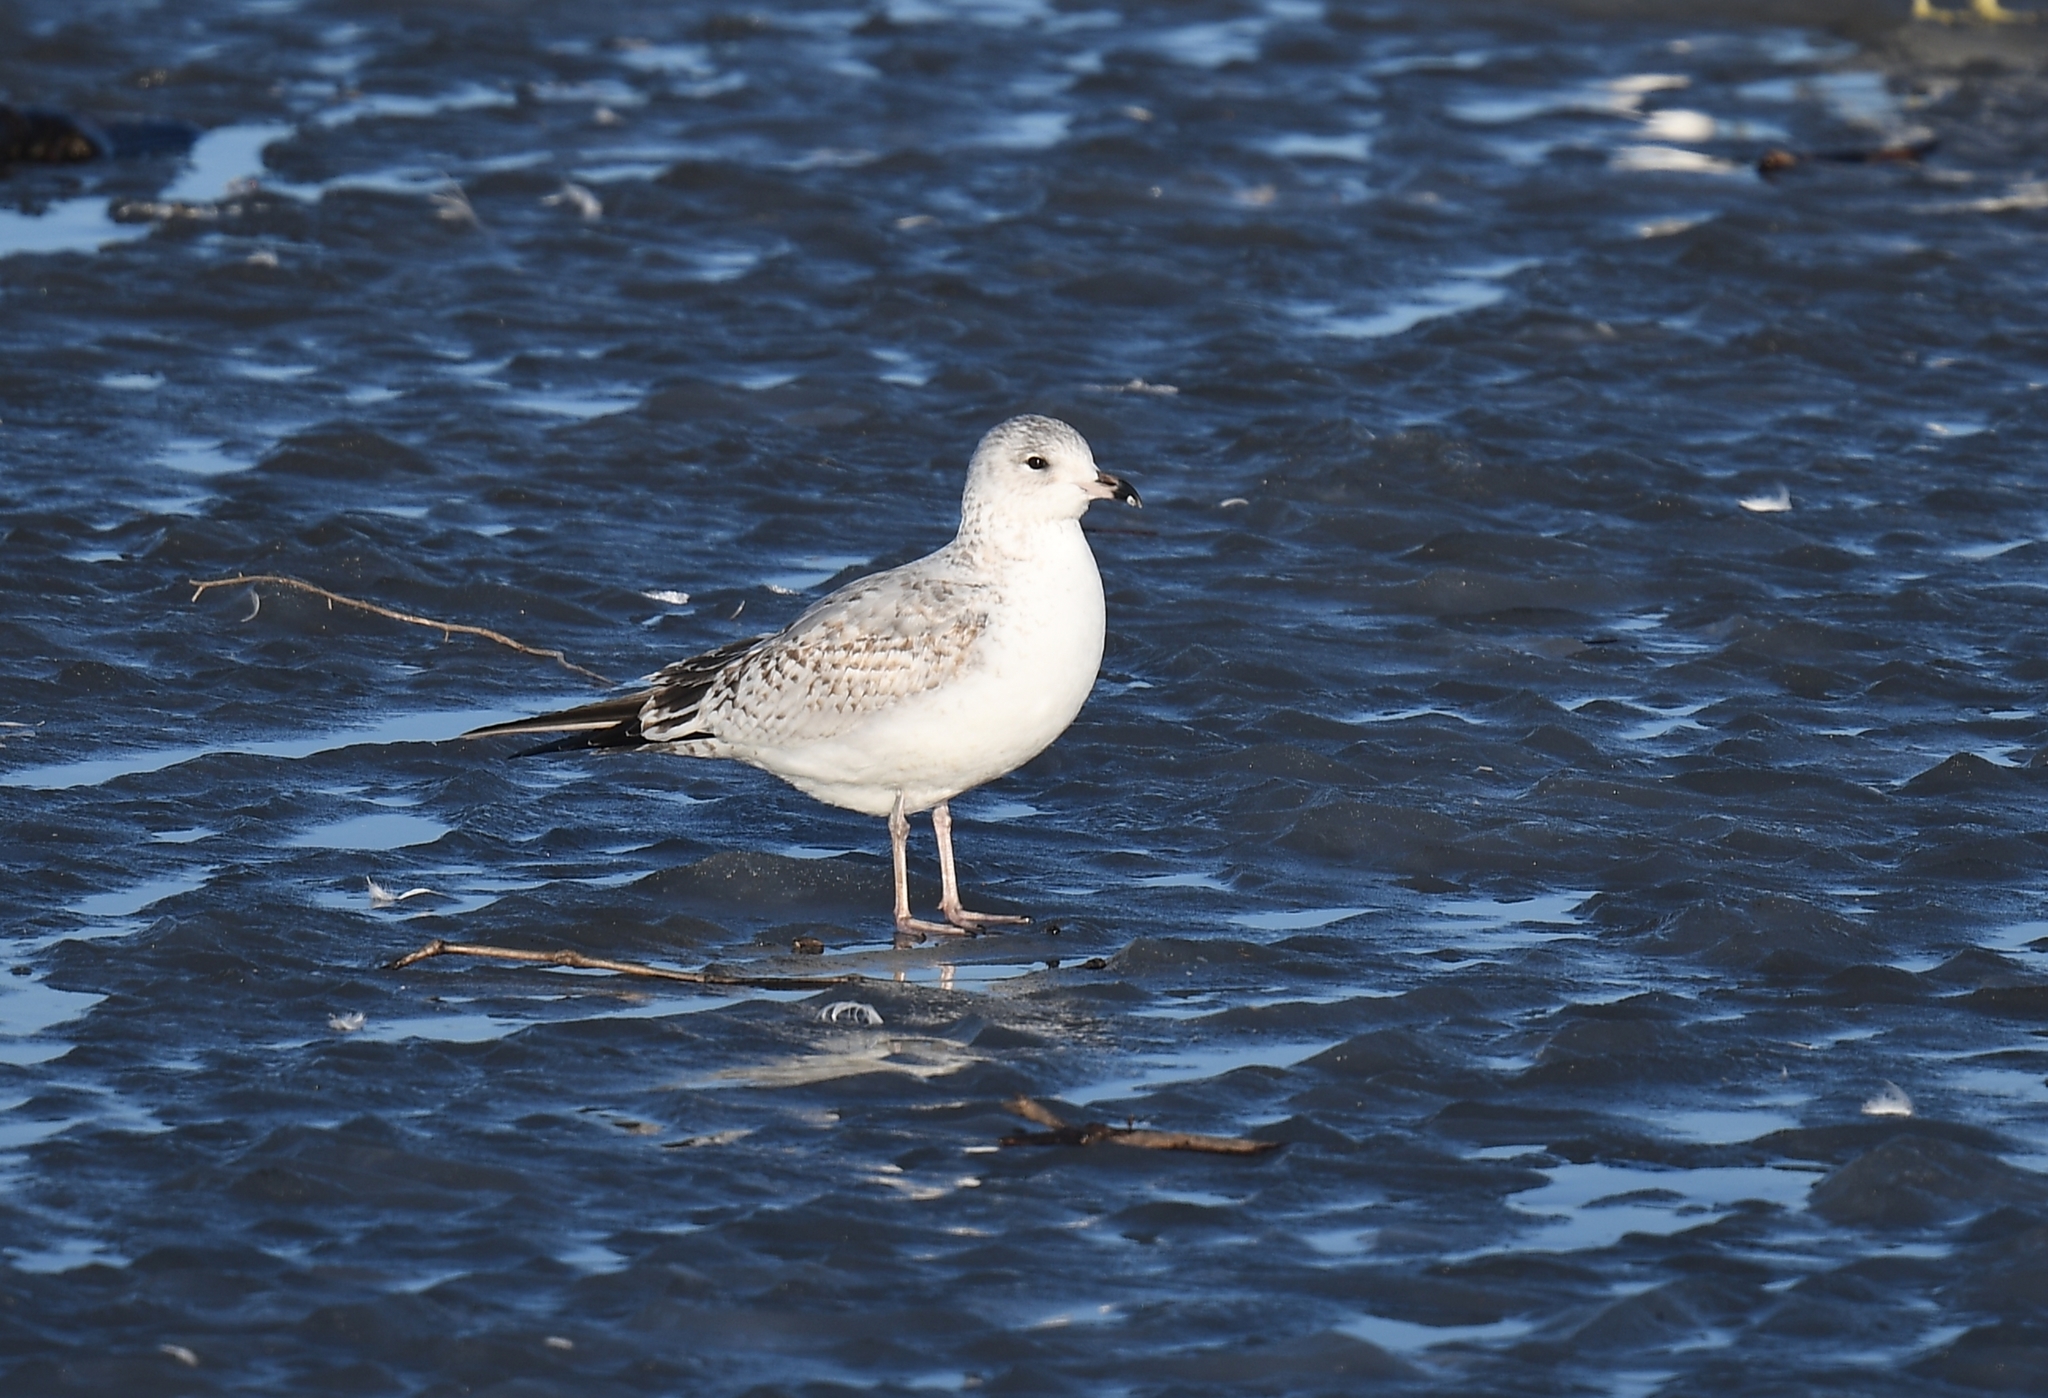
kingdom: Animalia
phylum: Chordata
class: Aves
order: Charadriiformes
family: Laridae
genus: Larus
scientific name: Larus delawarensis
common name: Ring-billed gull
